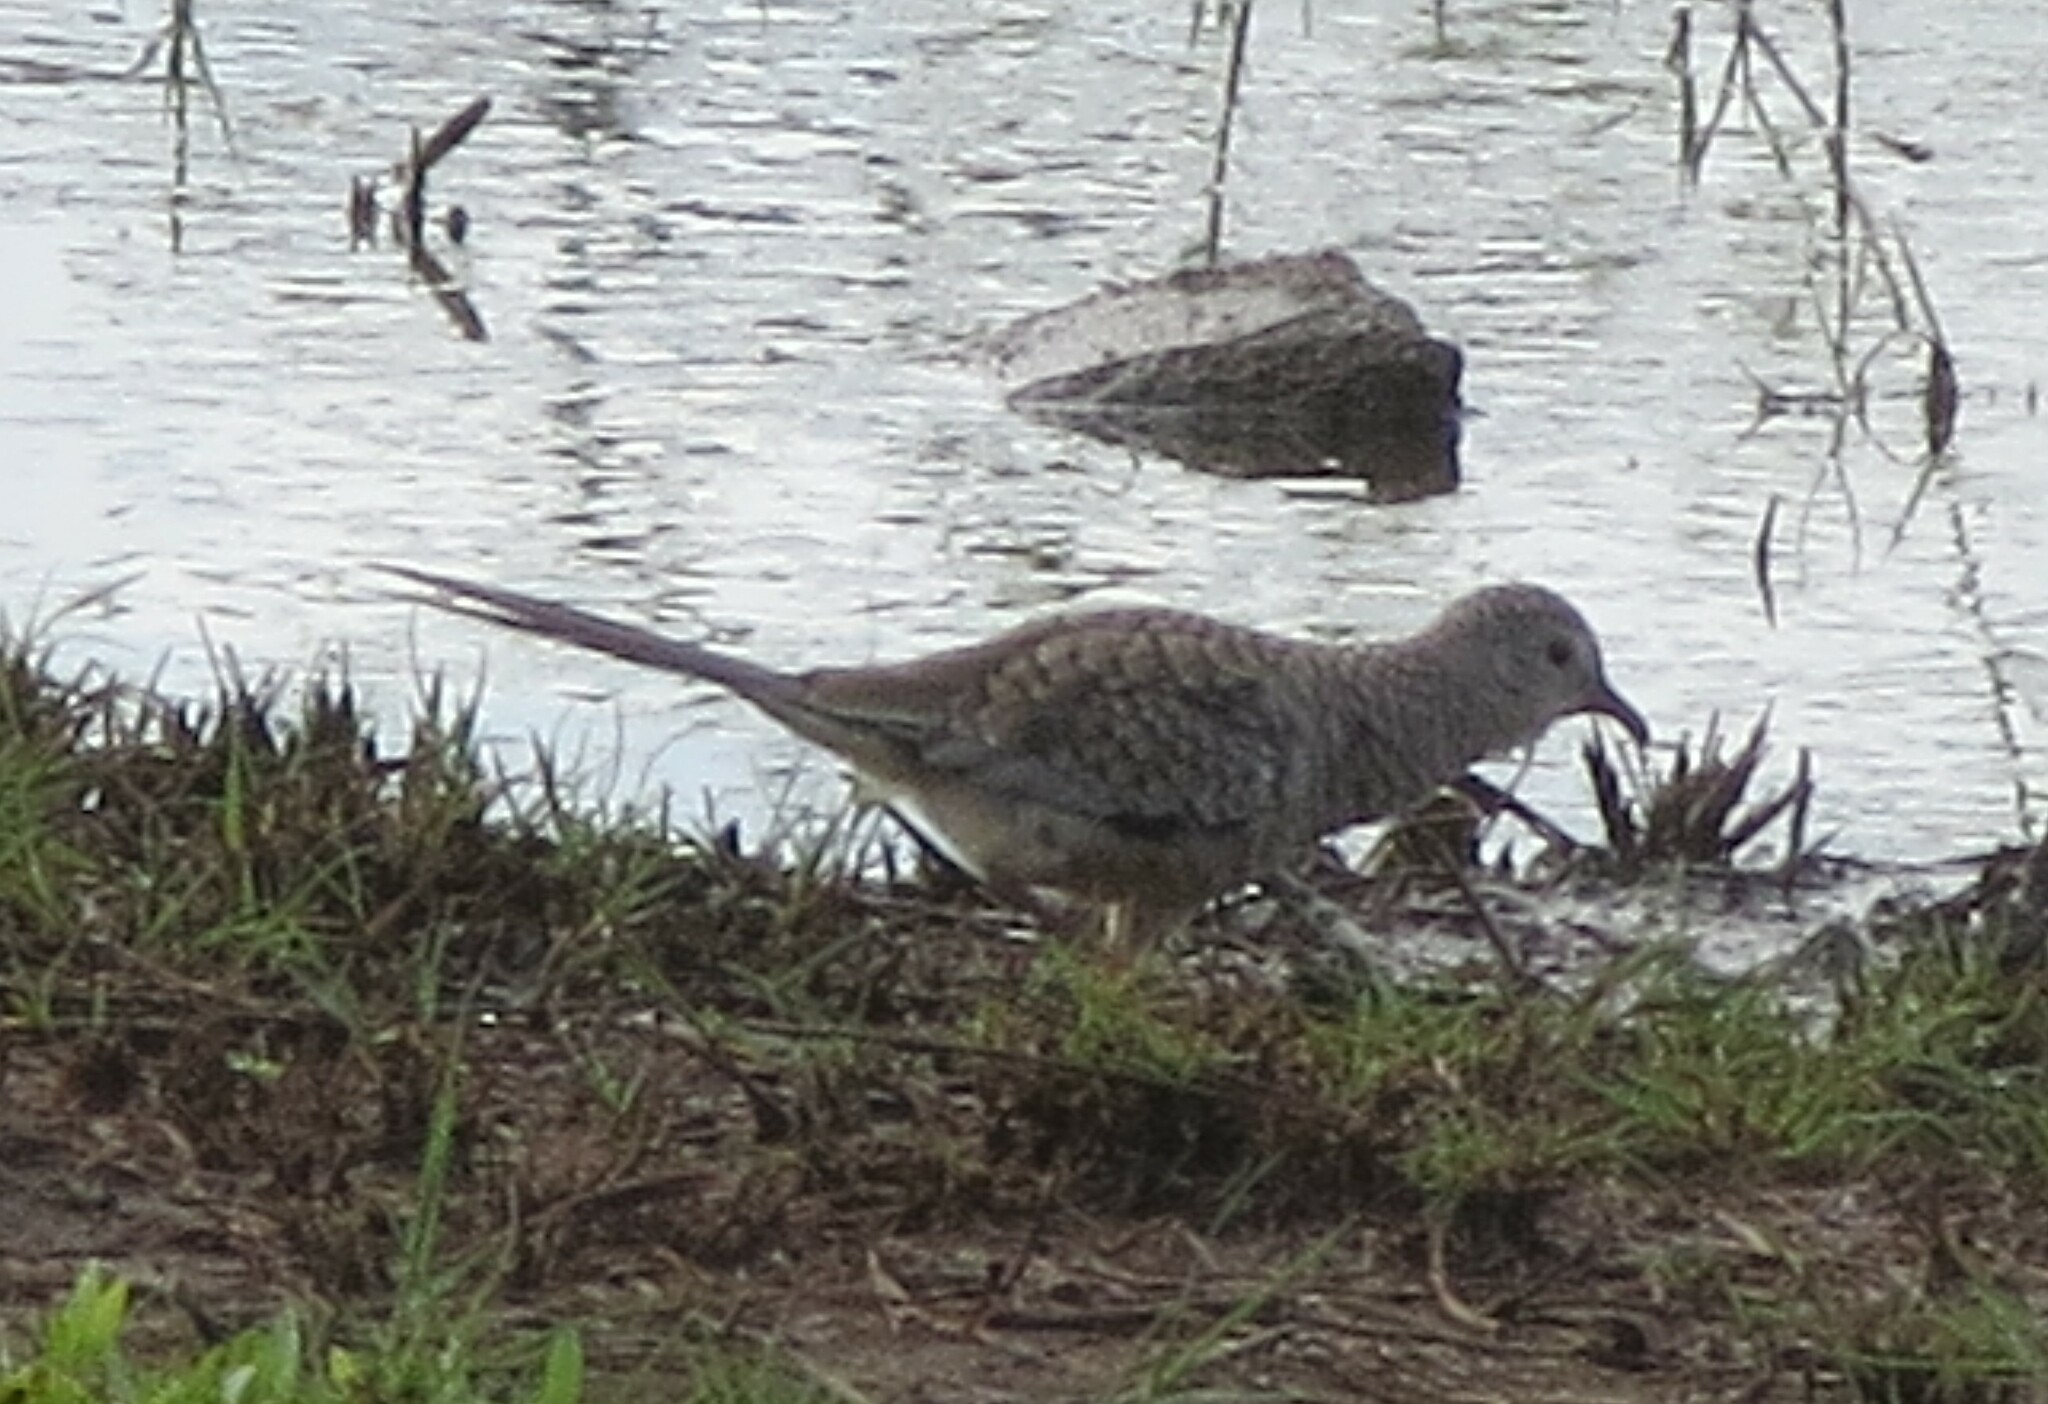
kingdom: Animalia
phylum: Chordata
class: Aves
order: Columbiformes
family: Columbidae
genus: Columbina
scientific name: Columbina squammata
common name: Scaled dove
